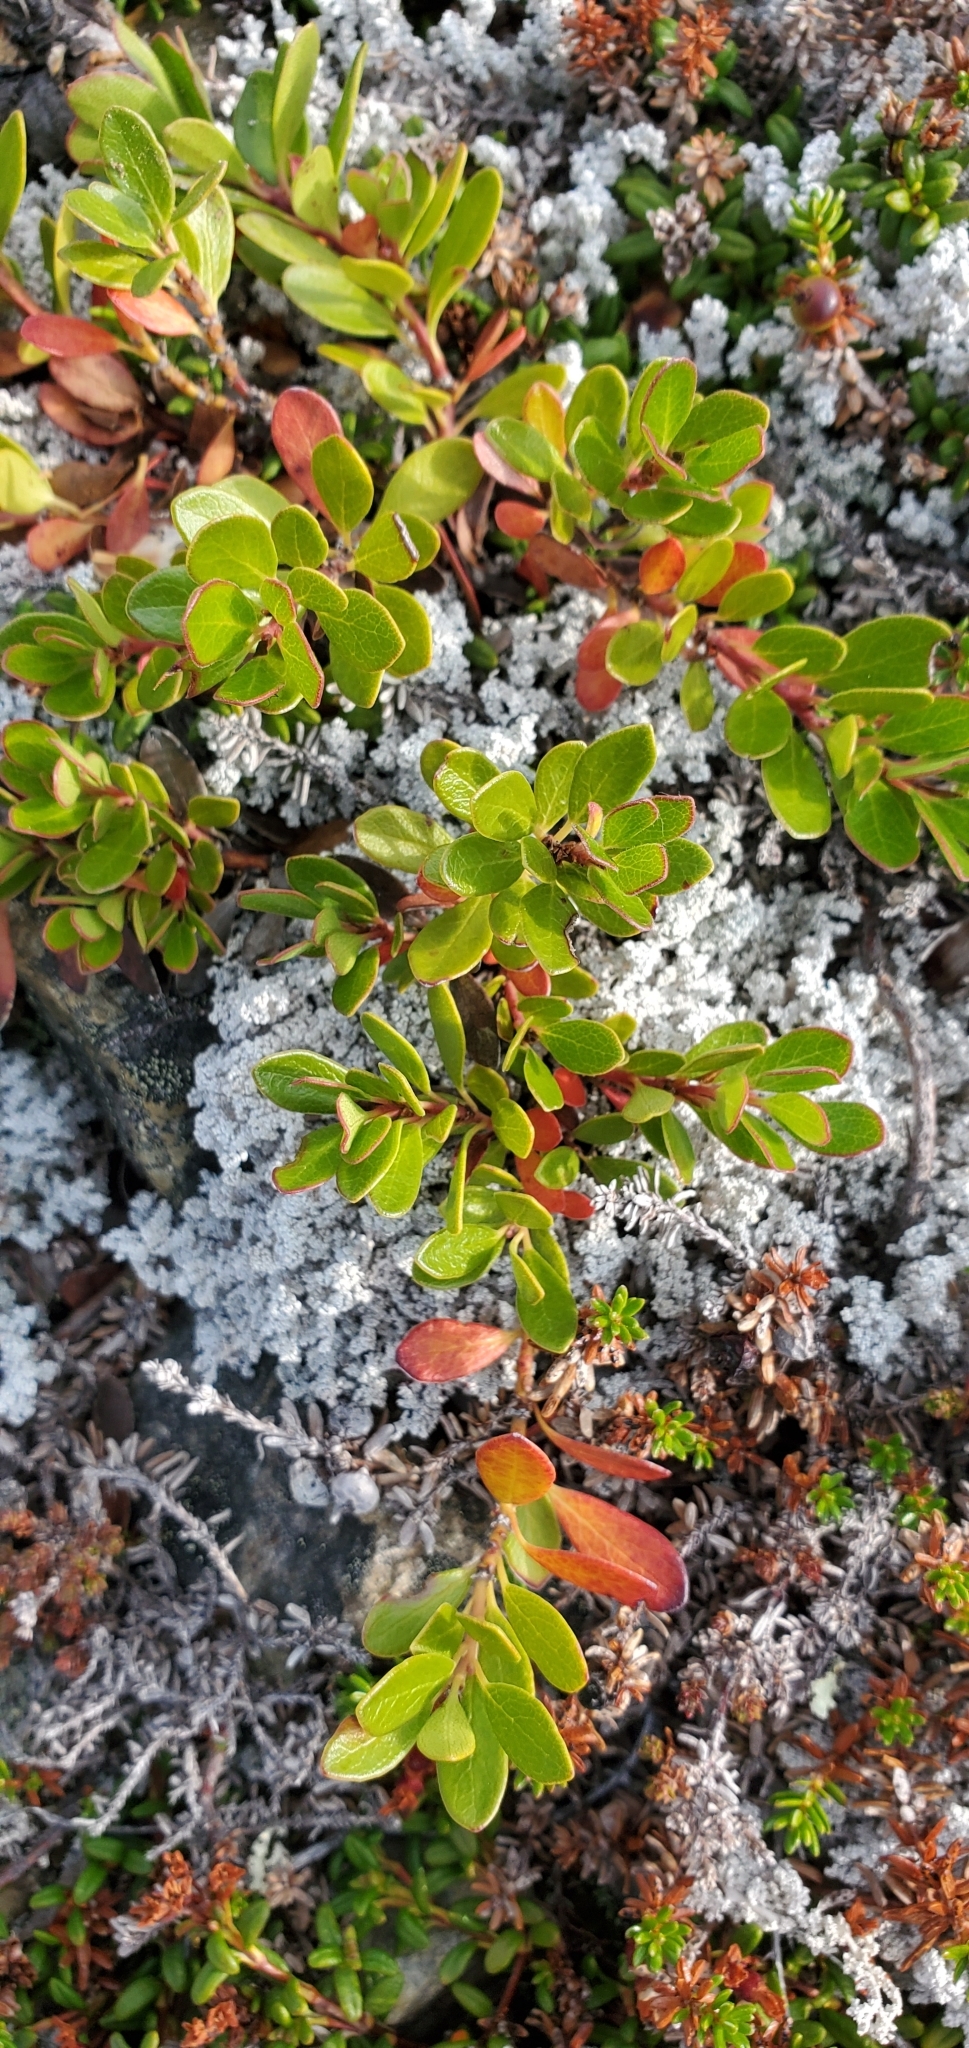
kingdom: Plantae
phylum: Tracheophyta
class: Magnoliopsida
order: Ericales
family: Ericaceae
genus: Arctostaphylos
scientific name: Arctostaphylos uva-ursi
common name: Bearberry
